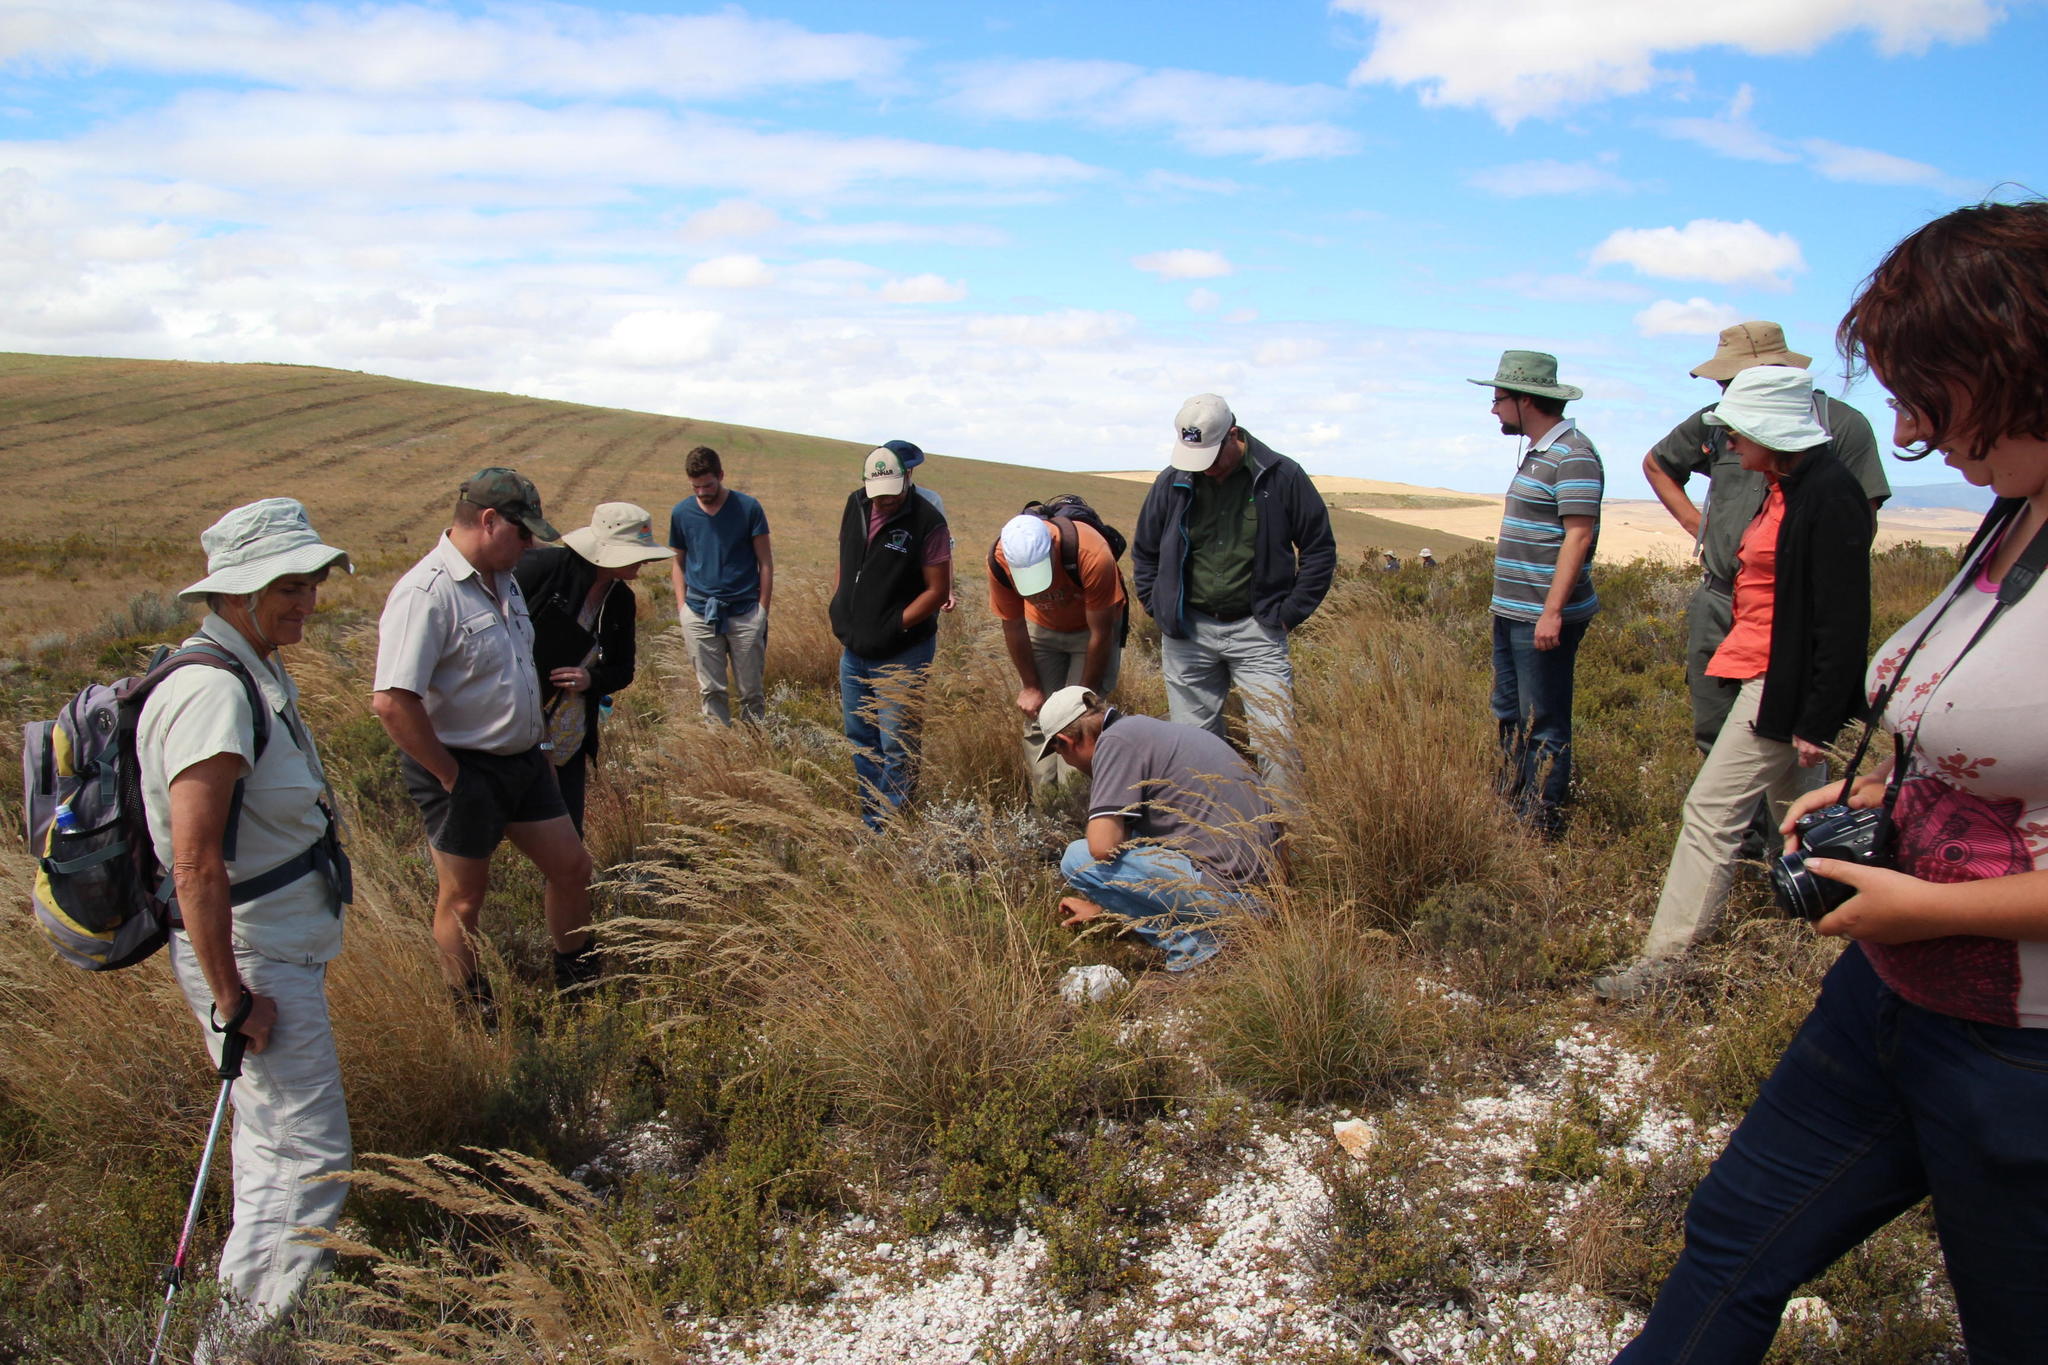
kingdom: Plantae
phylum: Tracheophyta
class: Magnoliopsida
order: Fabales
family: Fabaceae
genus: Aspalathus
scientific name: Aspalathus quartzicola
